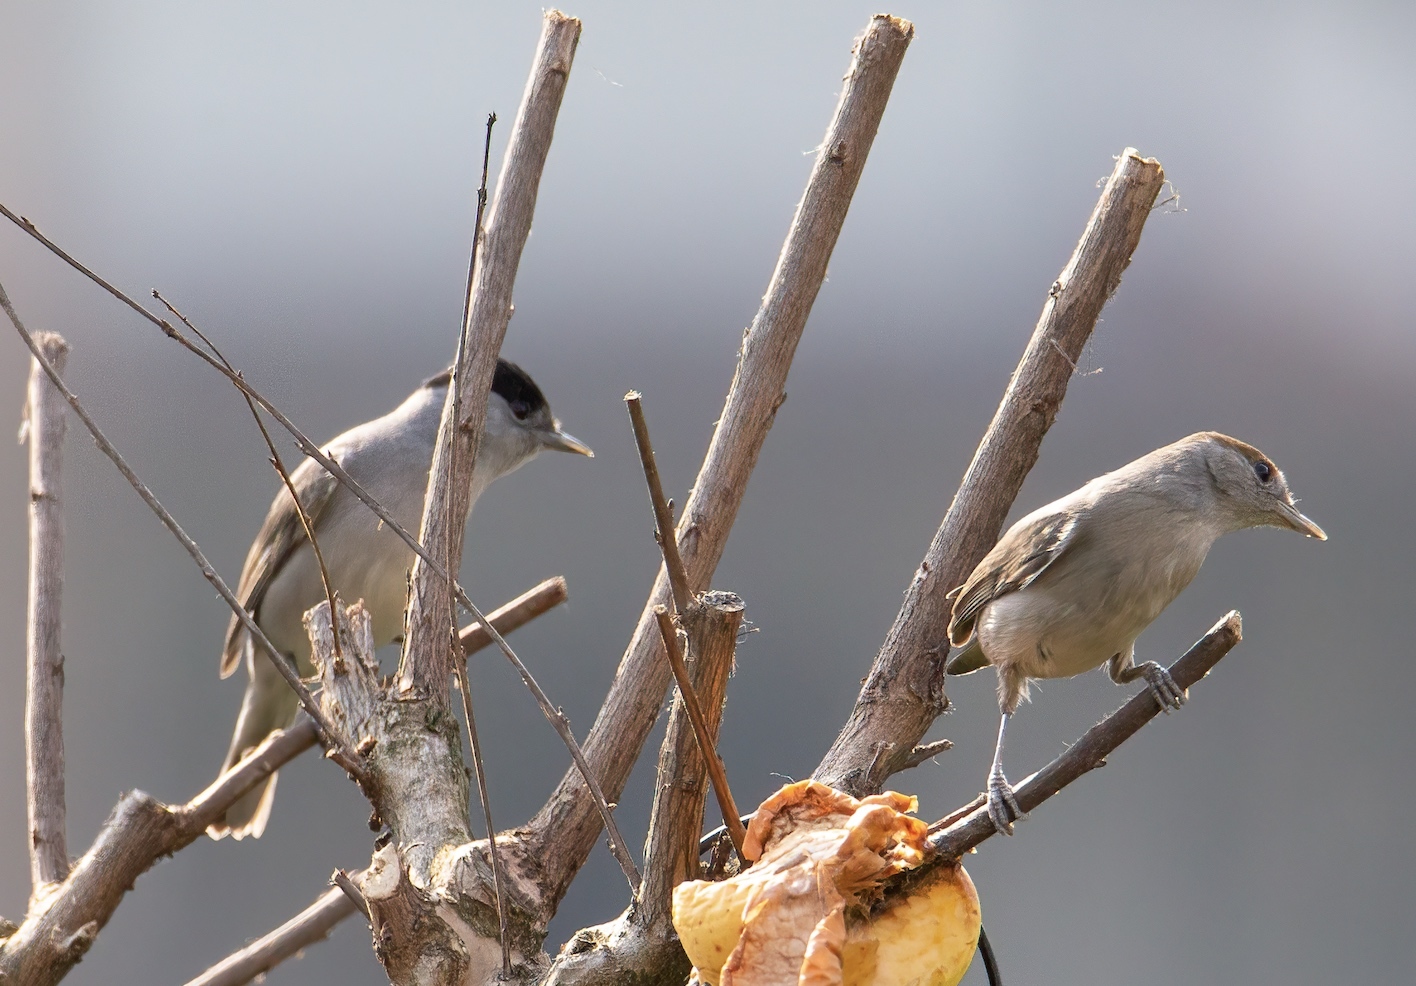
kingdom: Animalia
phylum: Chordata
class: Aves
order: Passeriformes
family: Sylviidae
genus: Sylvia
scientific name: Sylvia atricapilla
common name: Eurasian blackcap
